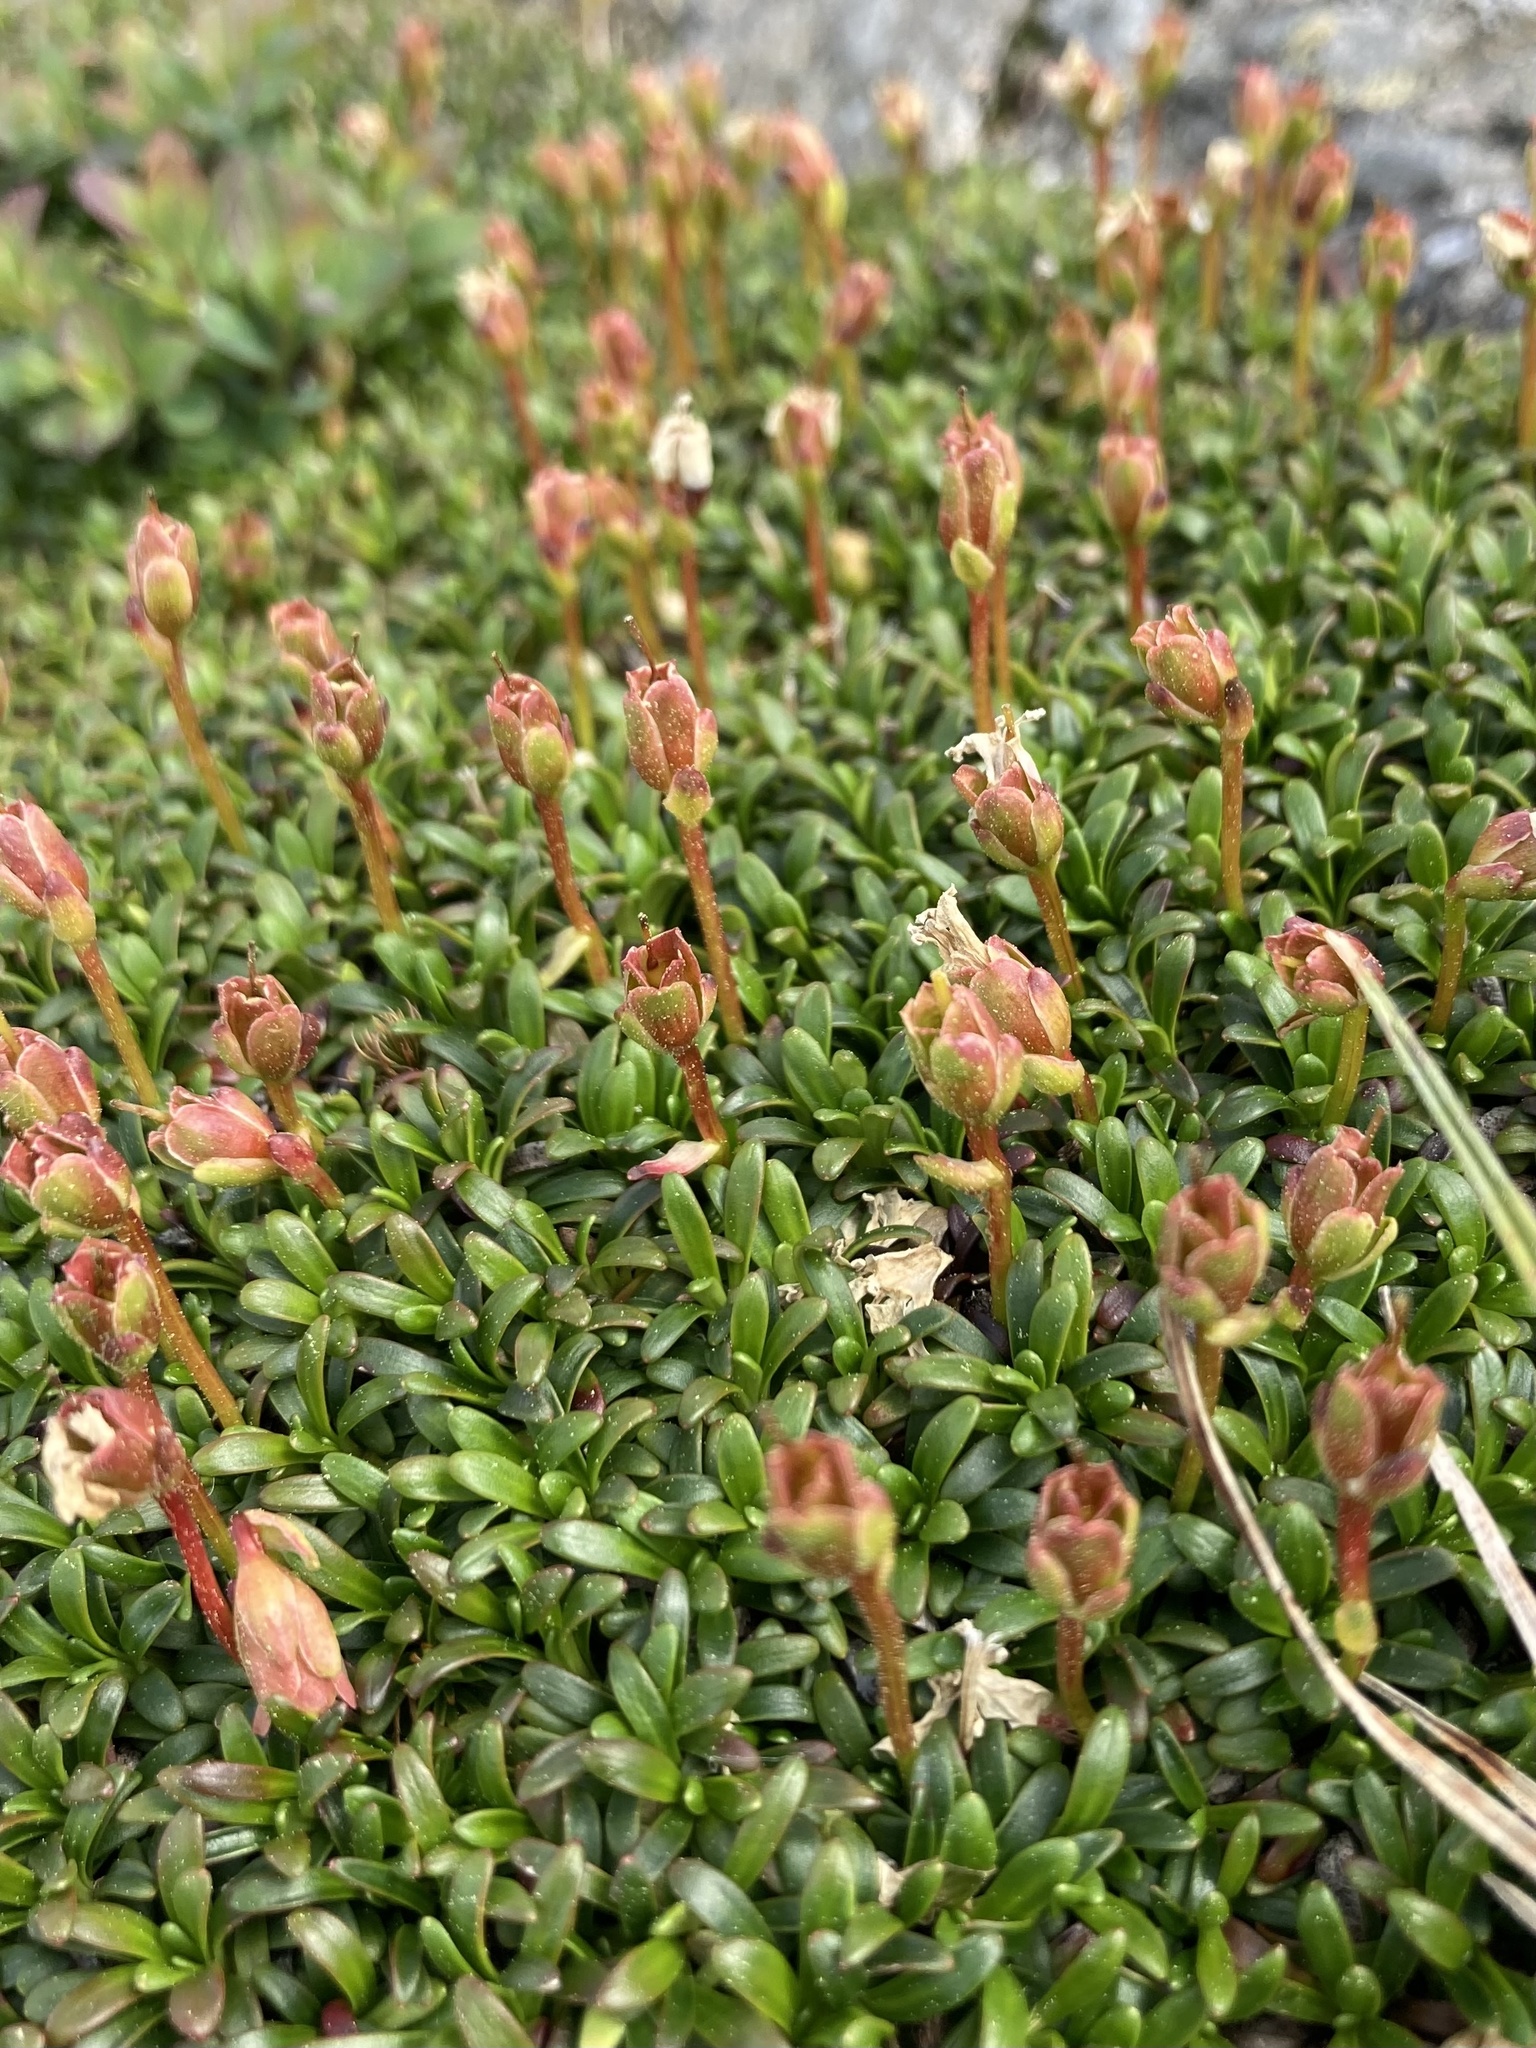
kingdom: Plantae
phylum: Tracheophyta
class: Magnoliopsida
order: Ericales
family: Diapensiaceae
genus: Diapensia
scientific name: Diapensia lapponica
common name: Diapensia
